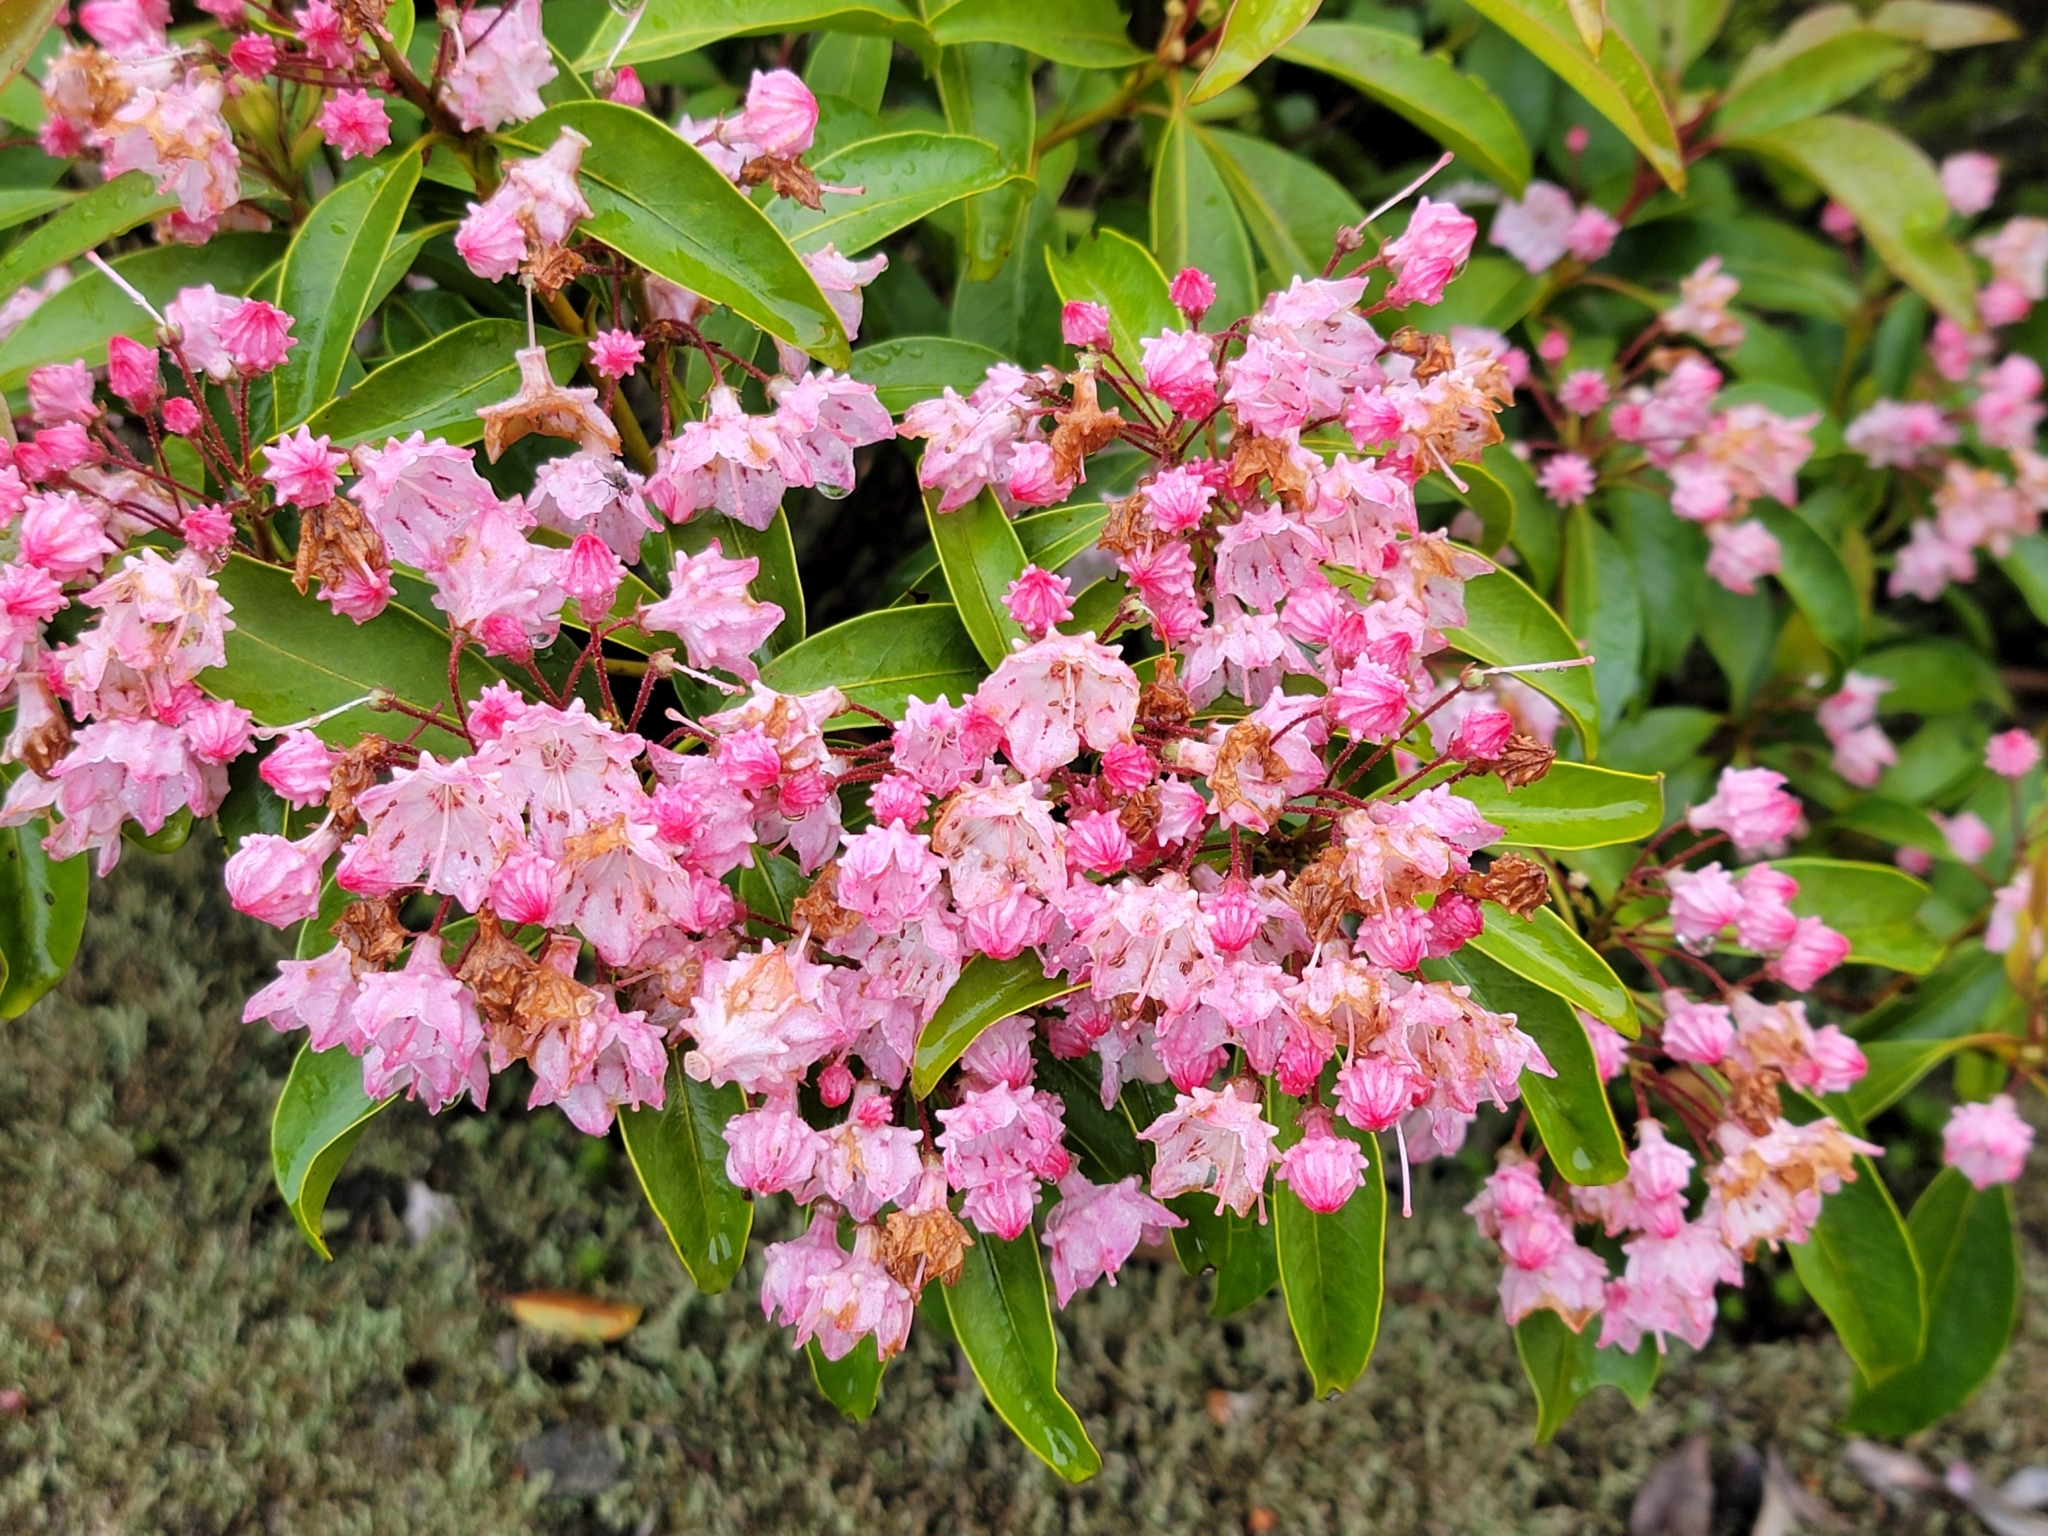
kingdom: Plantae
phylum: Tracheophyta
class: Magnoliopsida
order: Ericales
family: Ericaceae
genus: Kalmia
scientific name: Kalmia latifolia
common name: Mountain-laurel
